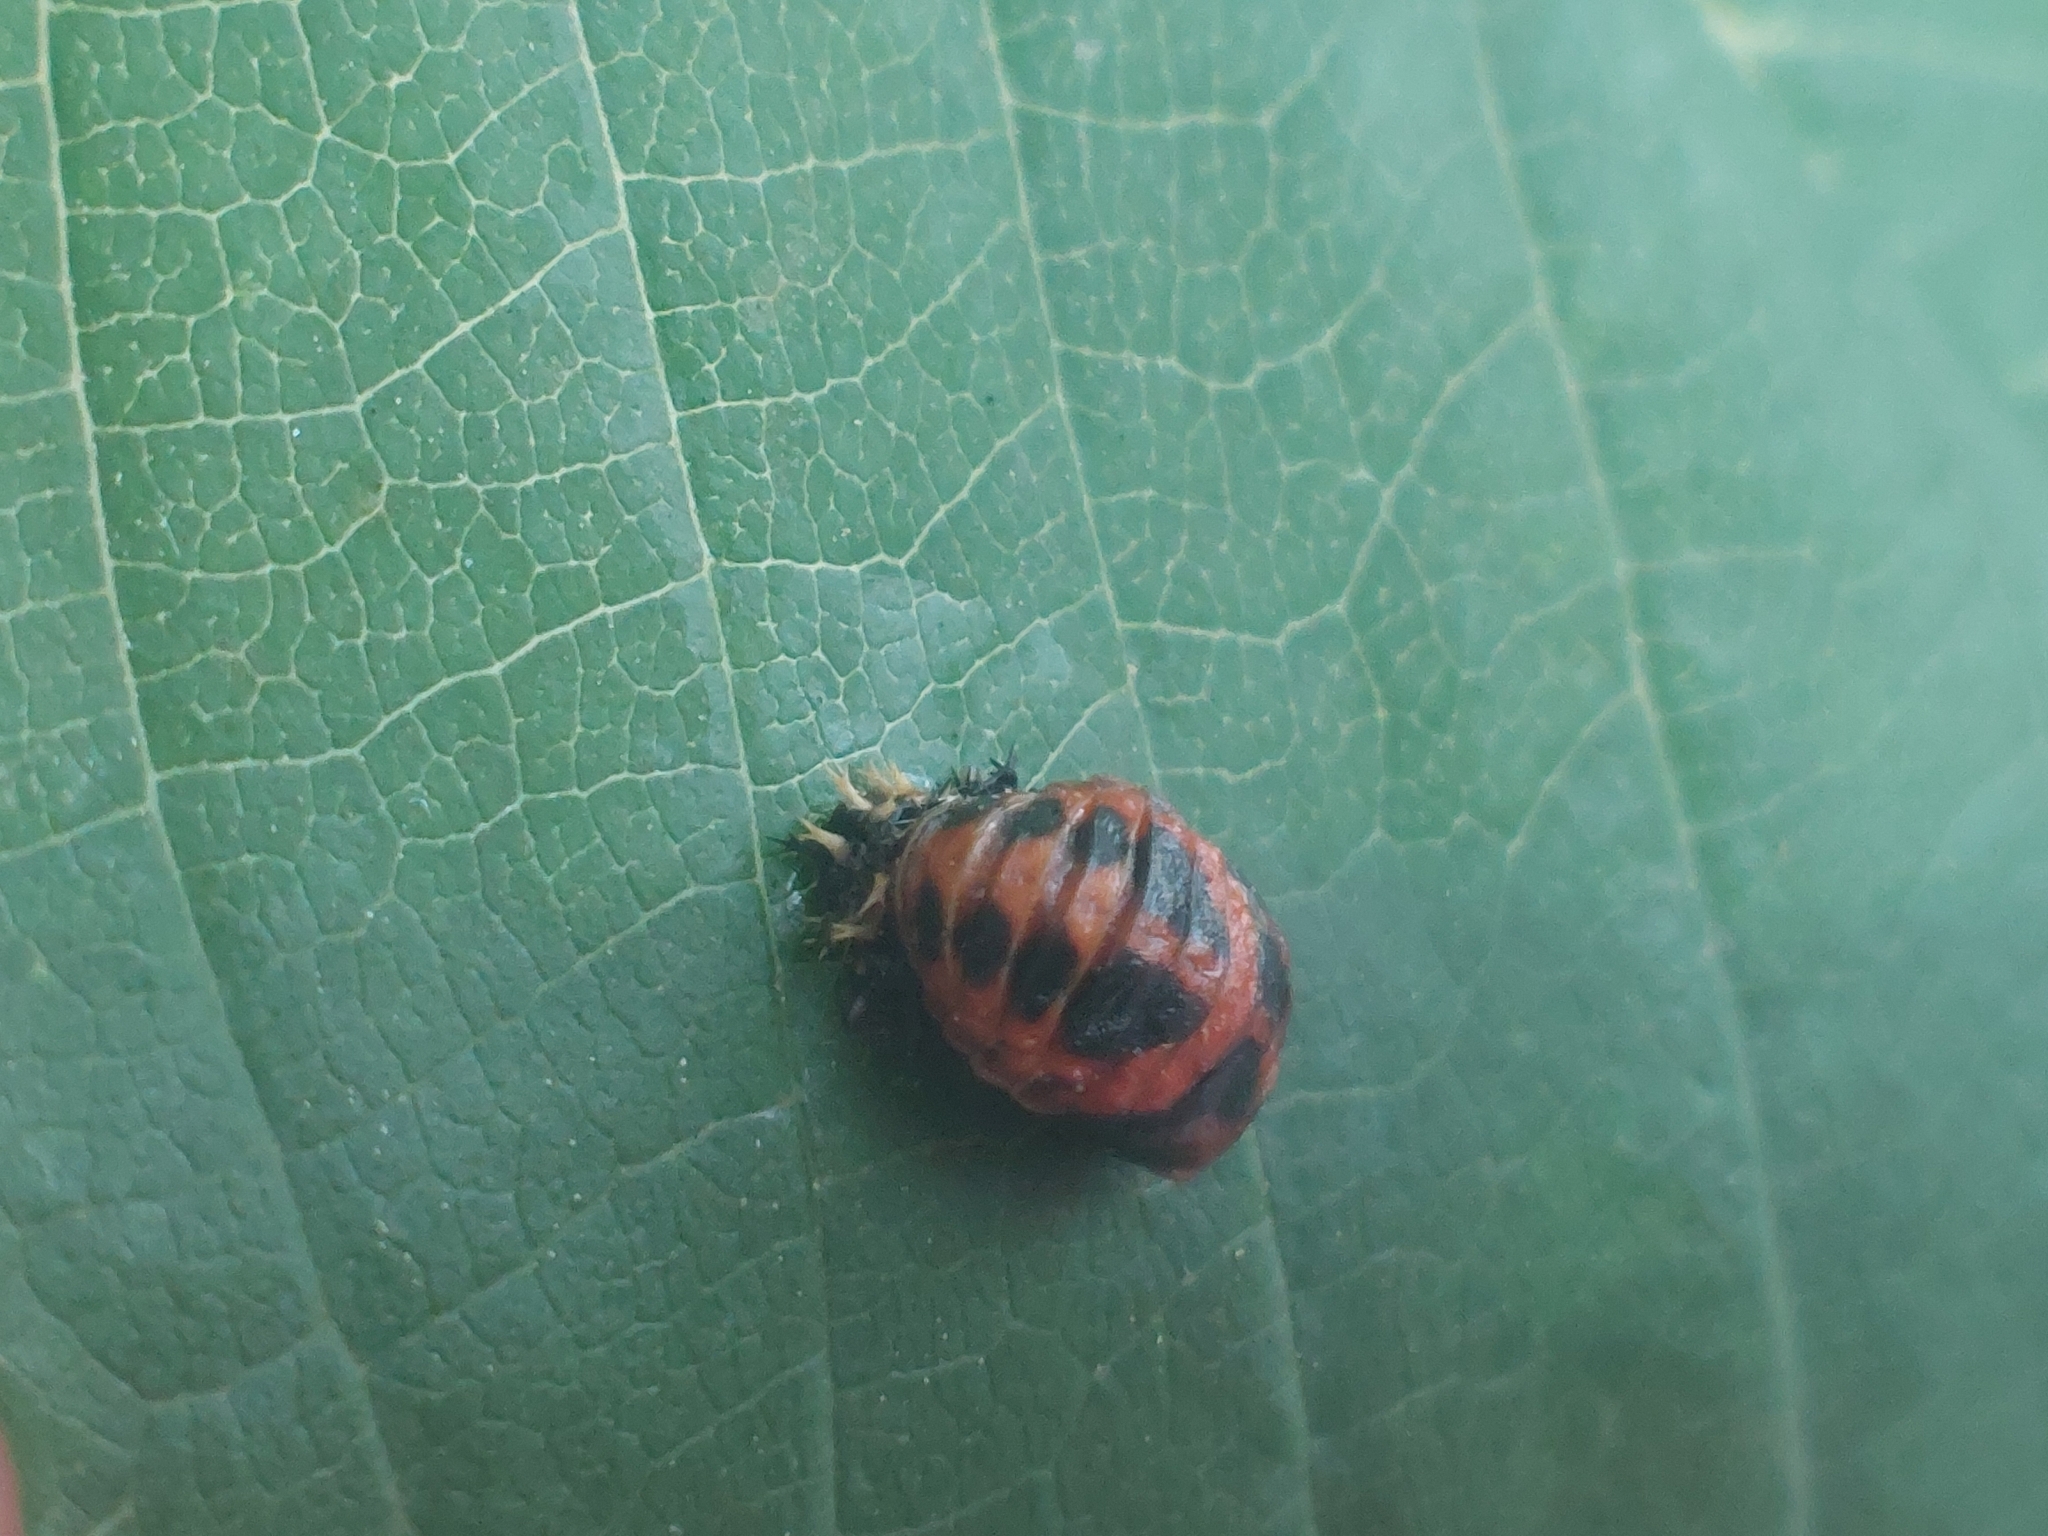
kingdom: Animalia
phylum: Arthropoda
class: Insecta
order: Coleoptera
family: Coccinellidae
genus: Harmonia
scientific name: Harmonia axyridis
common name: Harlequin ladybird
